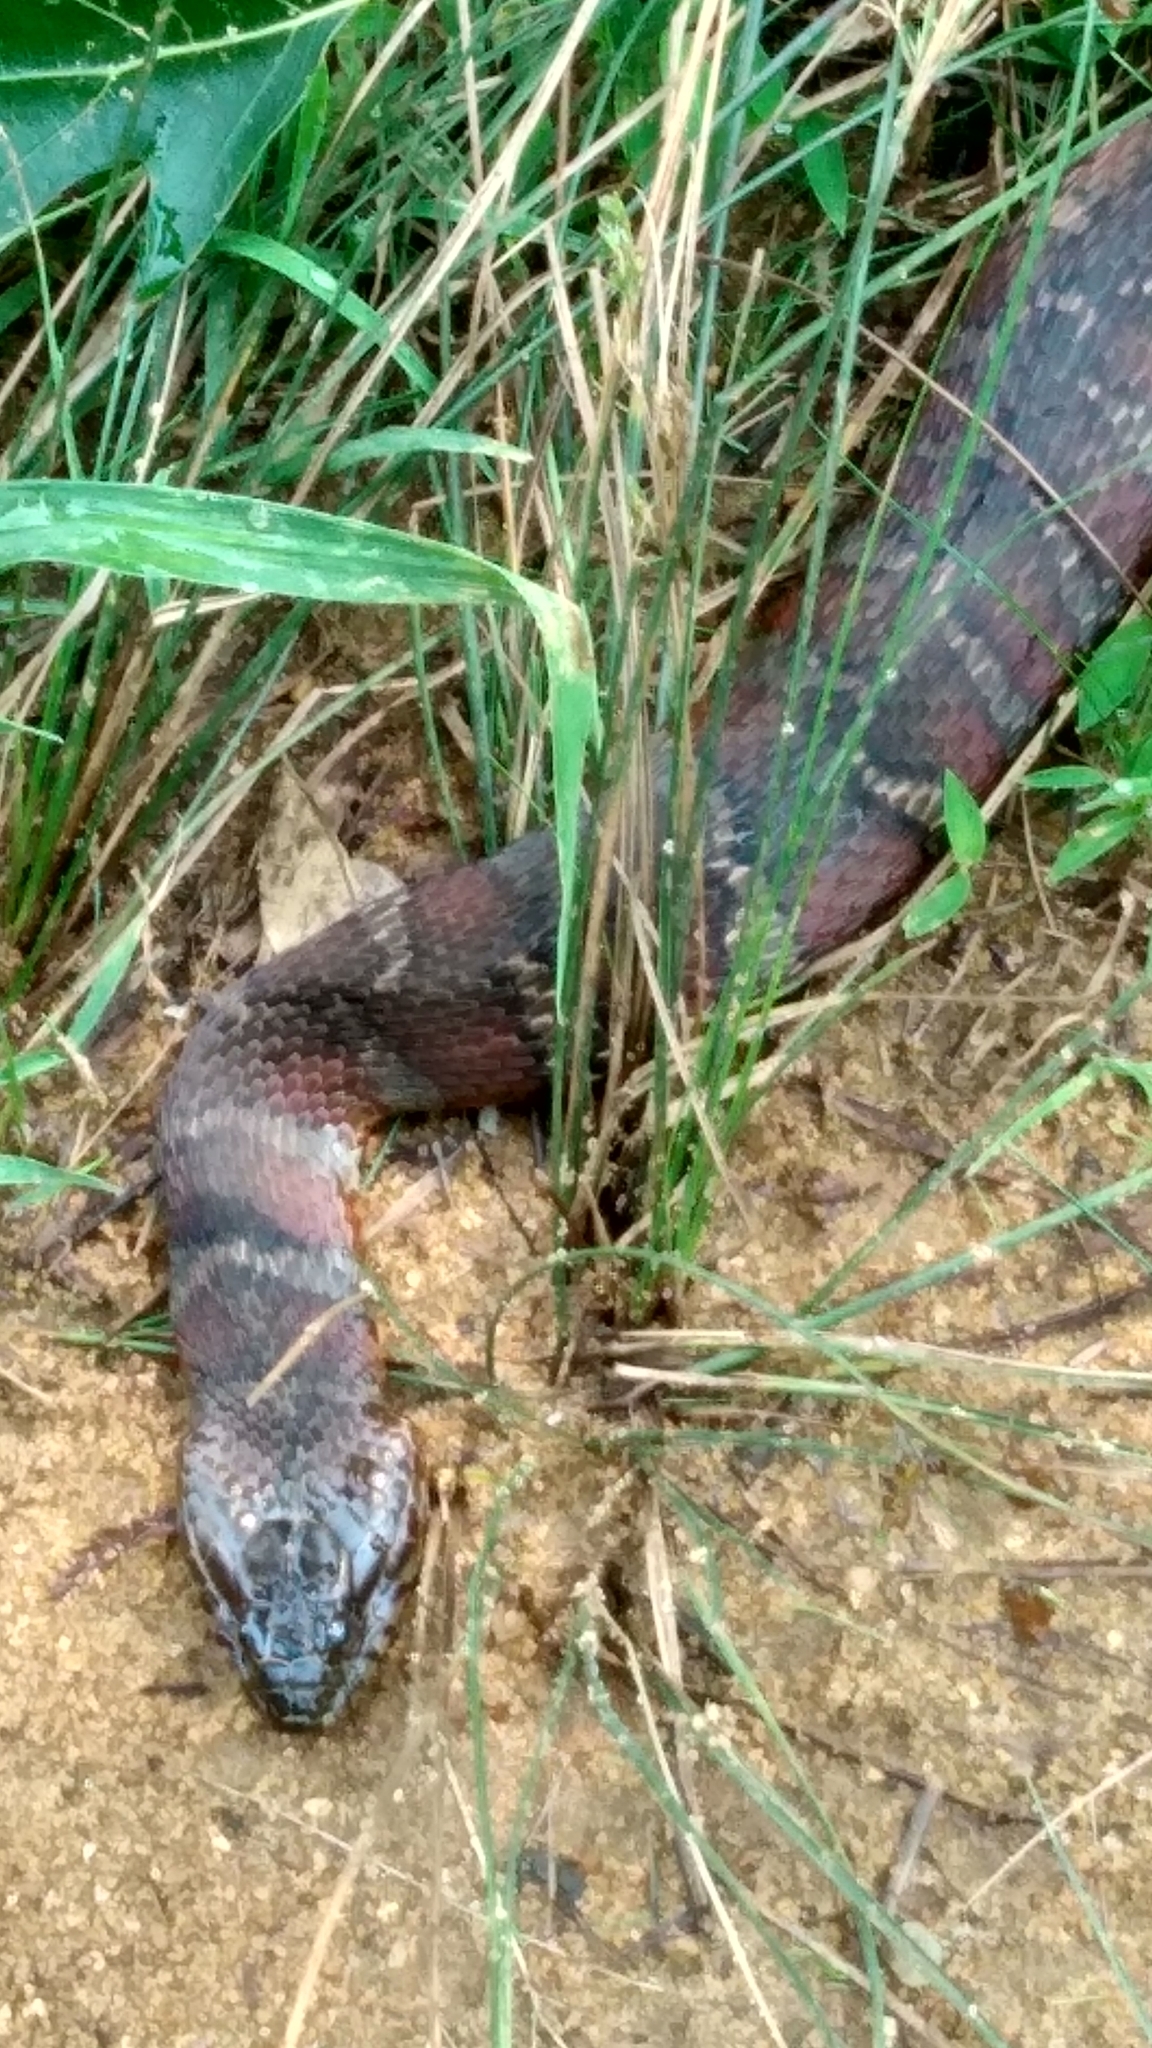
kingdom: Animalia
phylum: Chordata
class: Squamata
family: Colubridae
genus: Nerodia
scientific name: Nerodia sipedon
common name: Northern water snake
